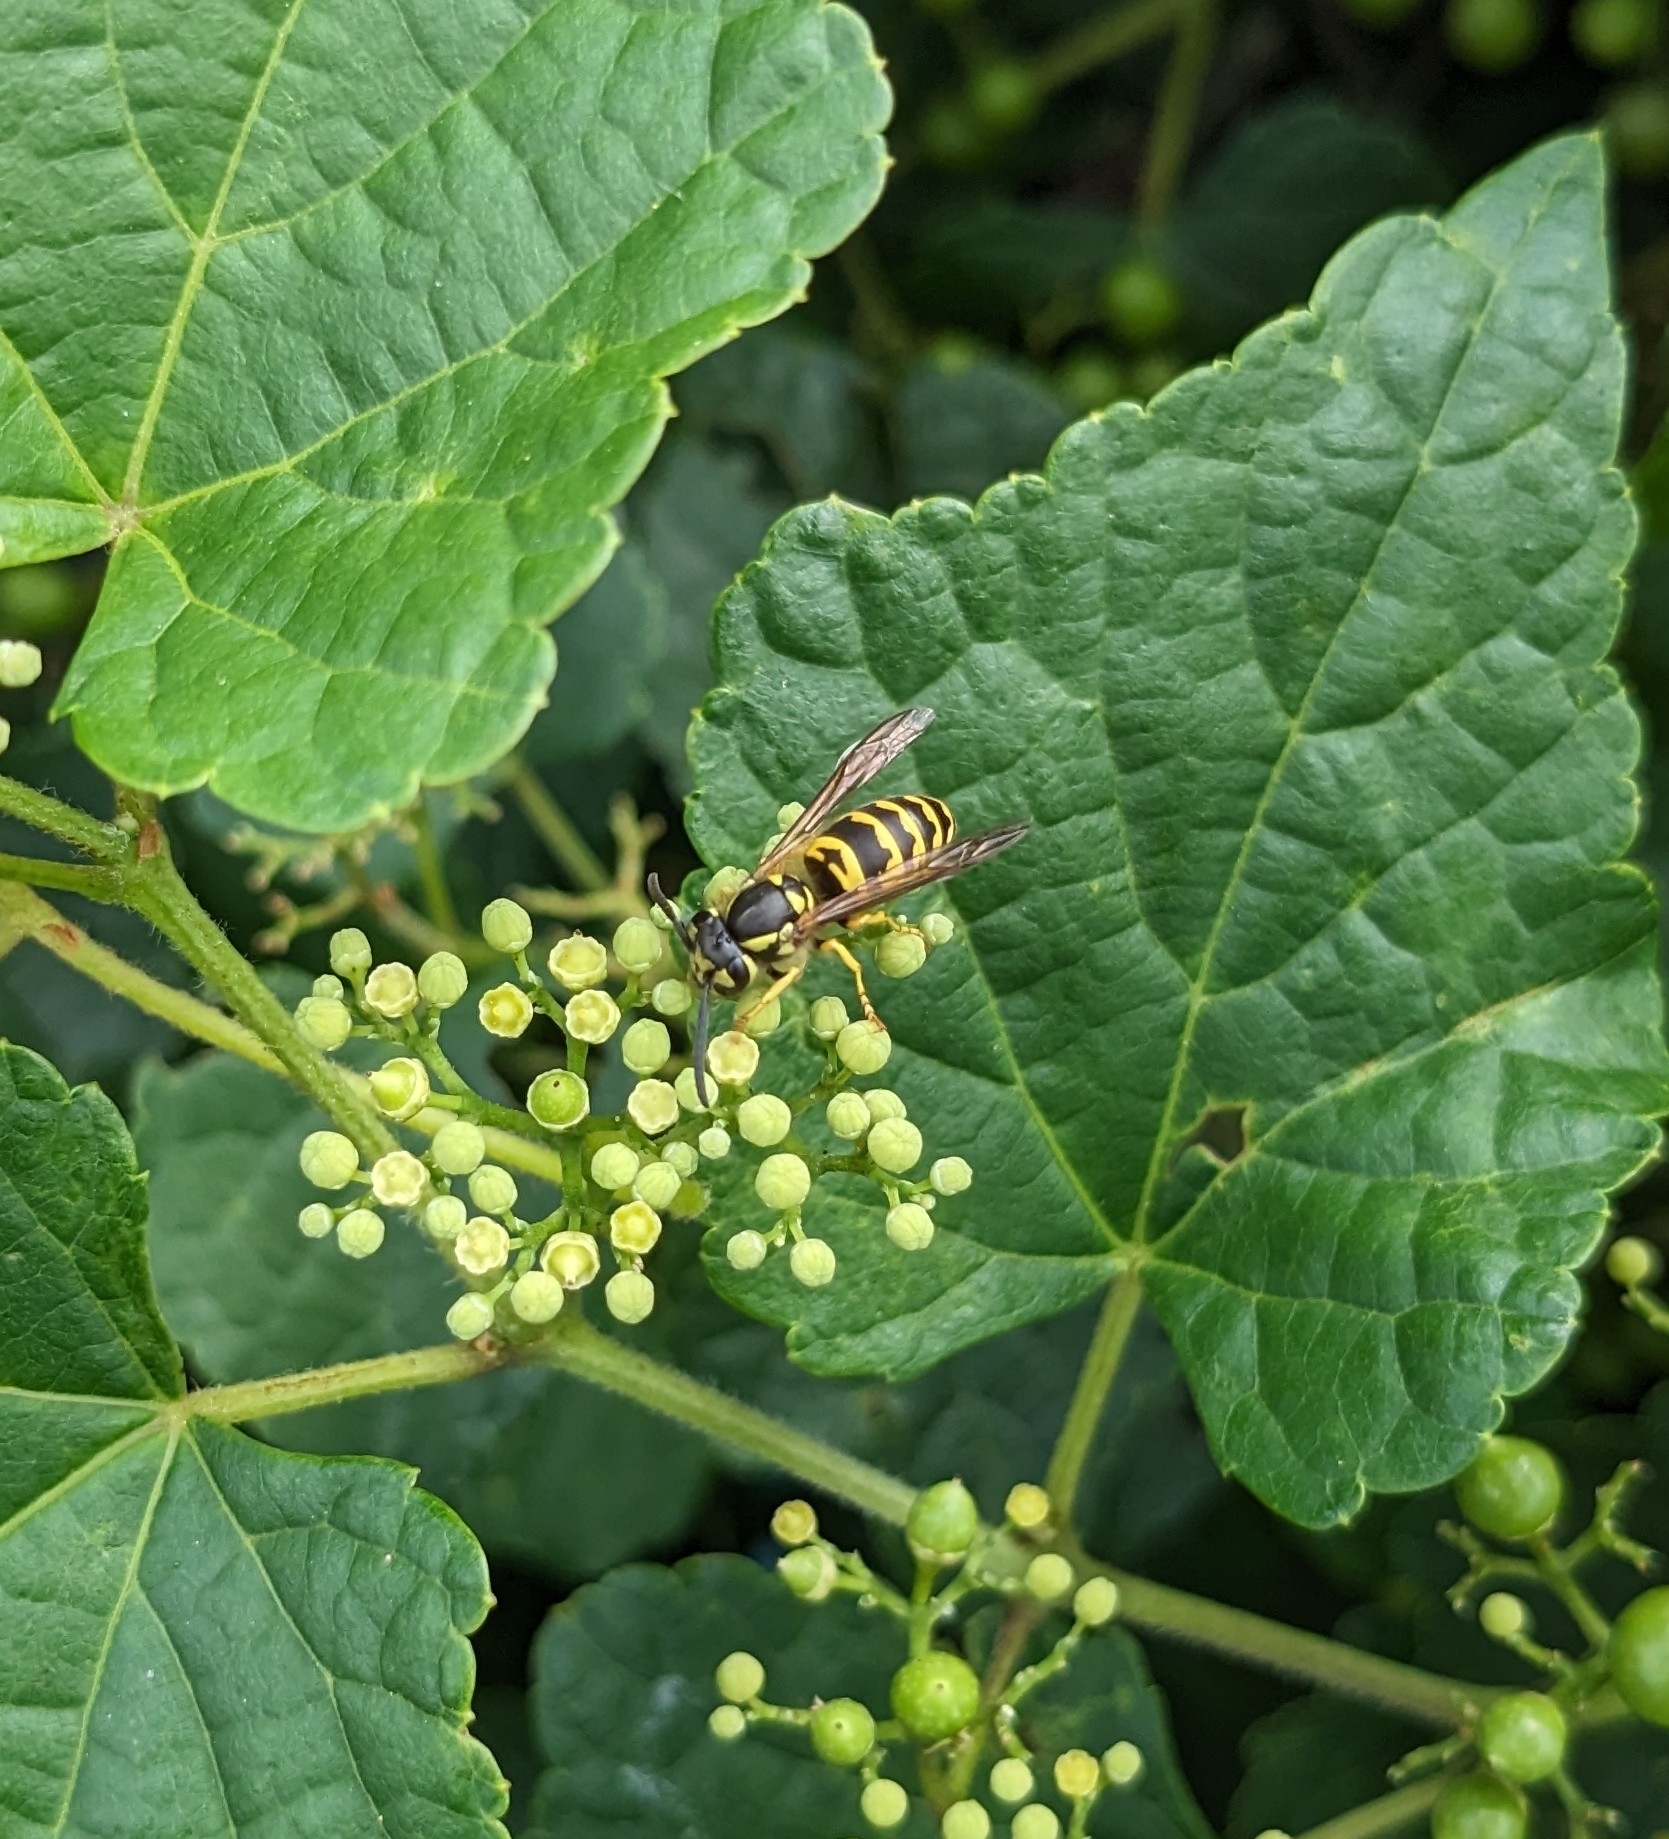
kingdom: Animalia
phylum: Arthropoda
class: Insecta
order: Hymenoptera
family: Vespidae
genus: Vespula
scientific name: Vespula maculifrons
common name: Eastern yellowjacket
